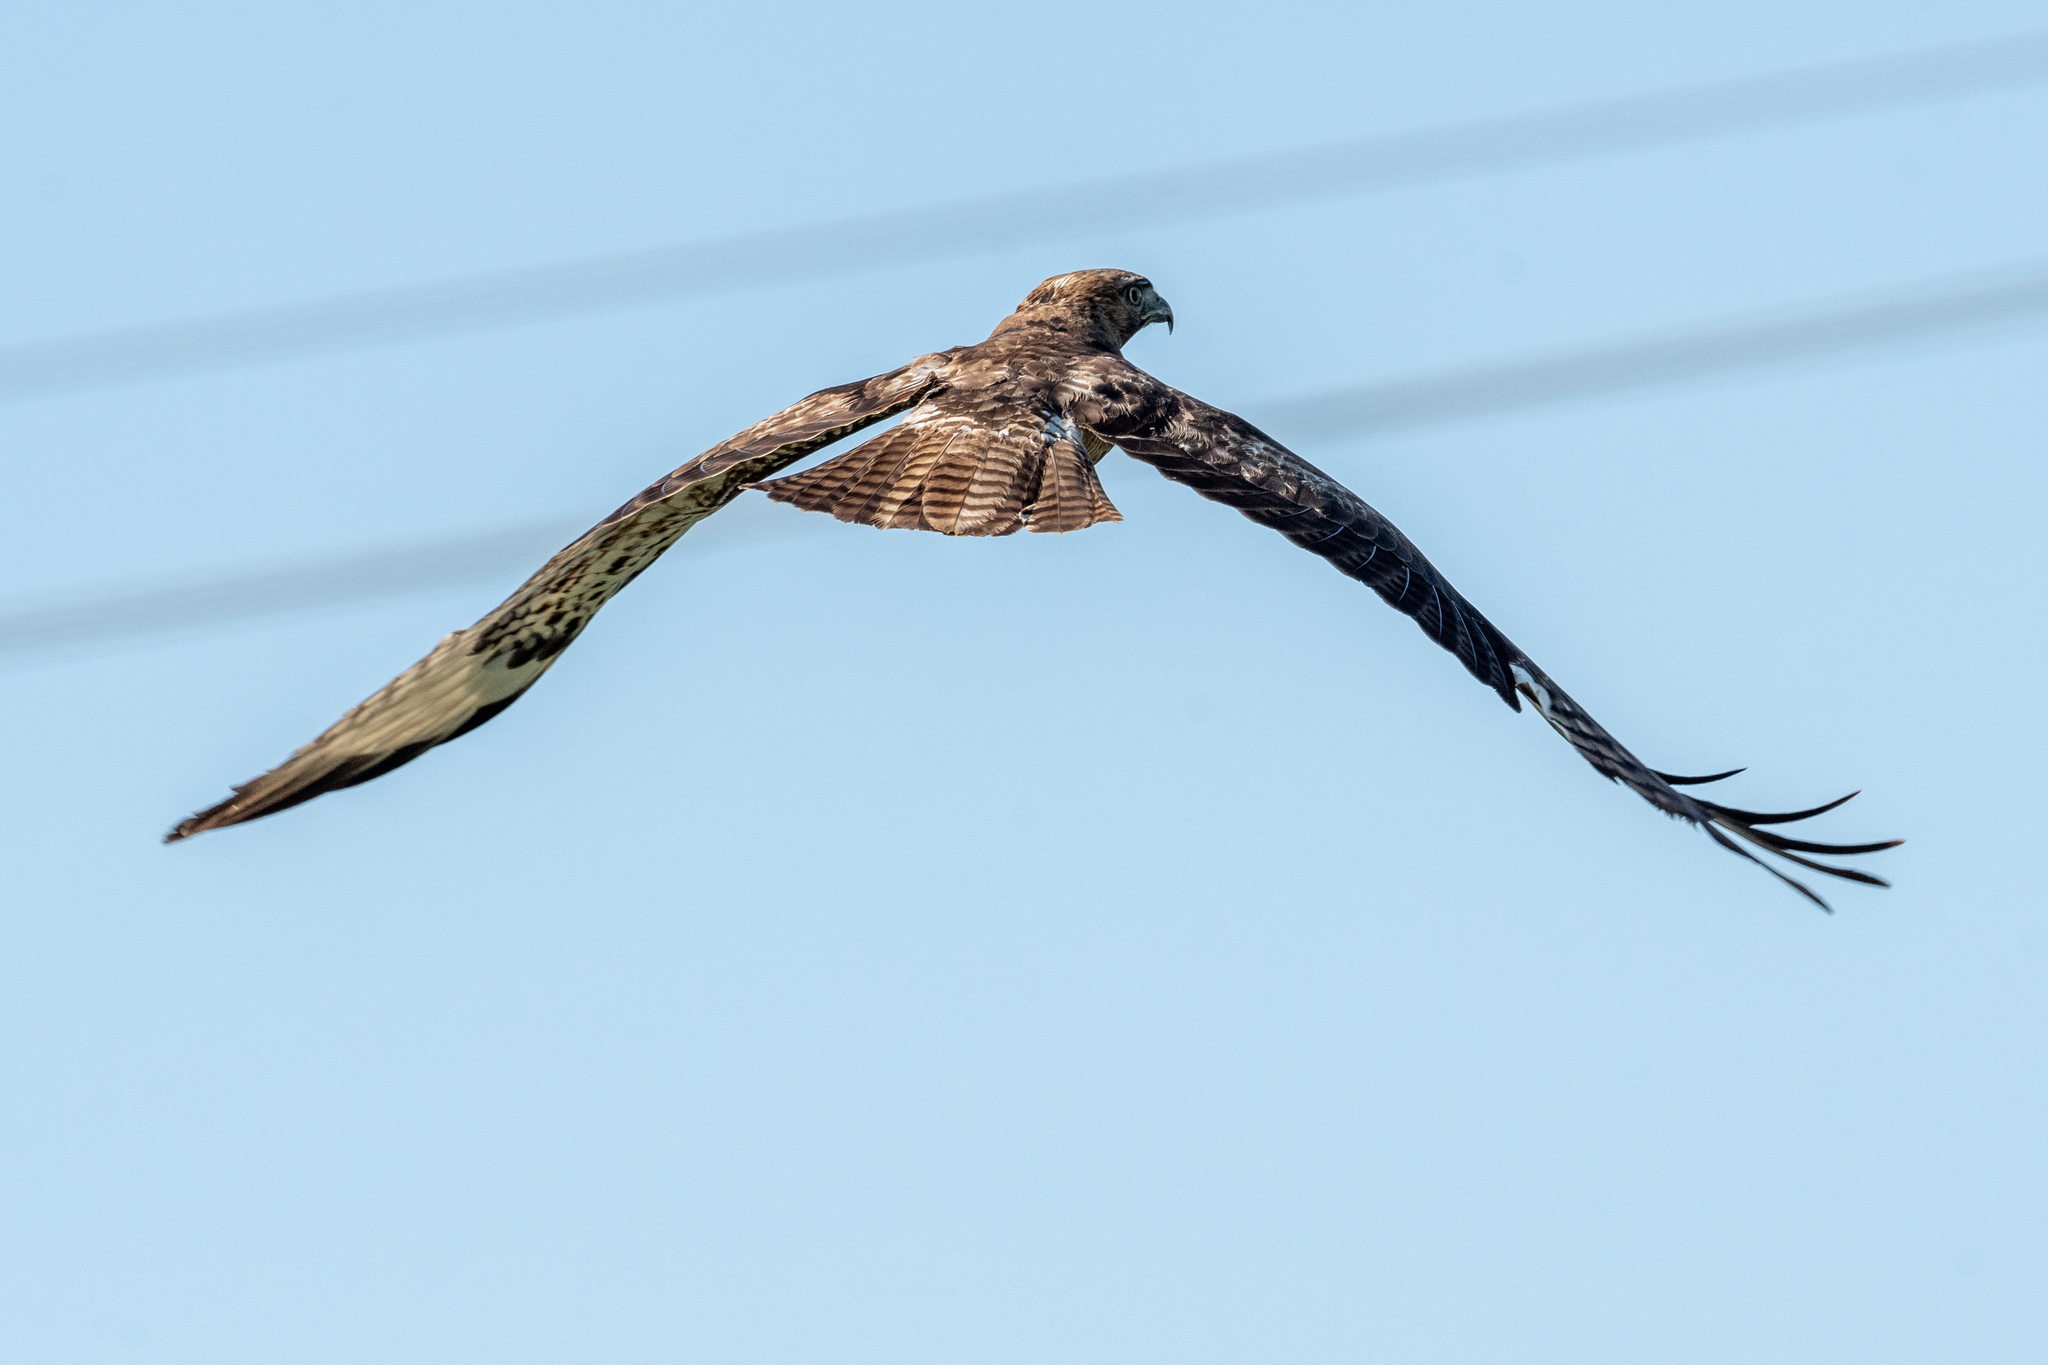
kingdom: Animalia
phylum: Chordata
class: Aves
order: Accipitriformes
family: Accipitridae
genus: Buteo
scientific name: Buteo jamaicensis
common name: Red-tailed hawk
